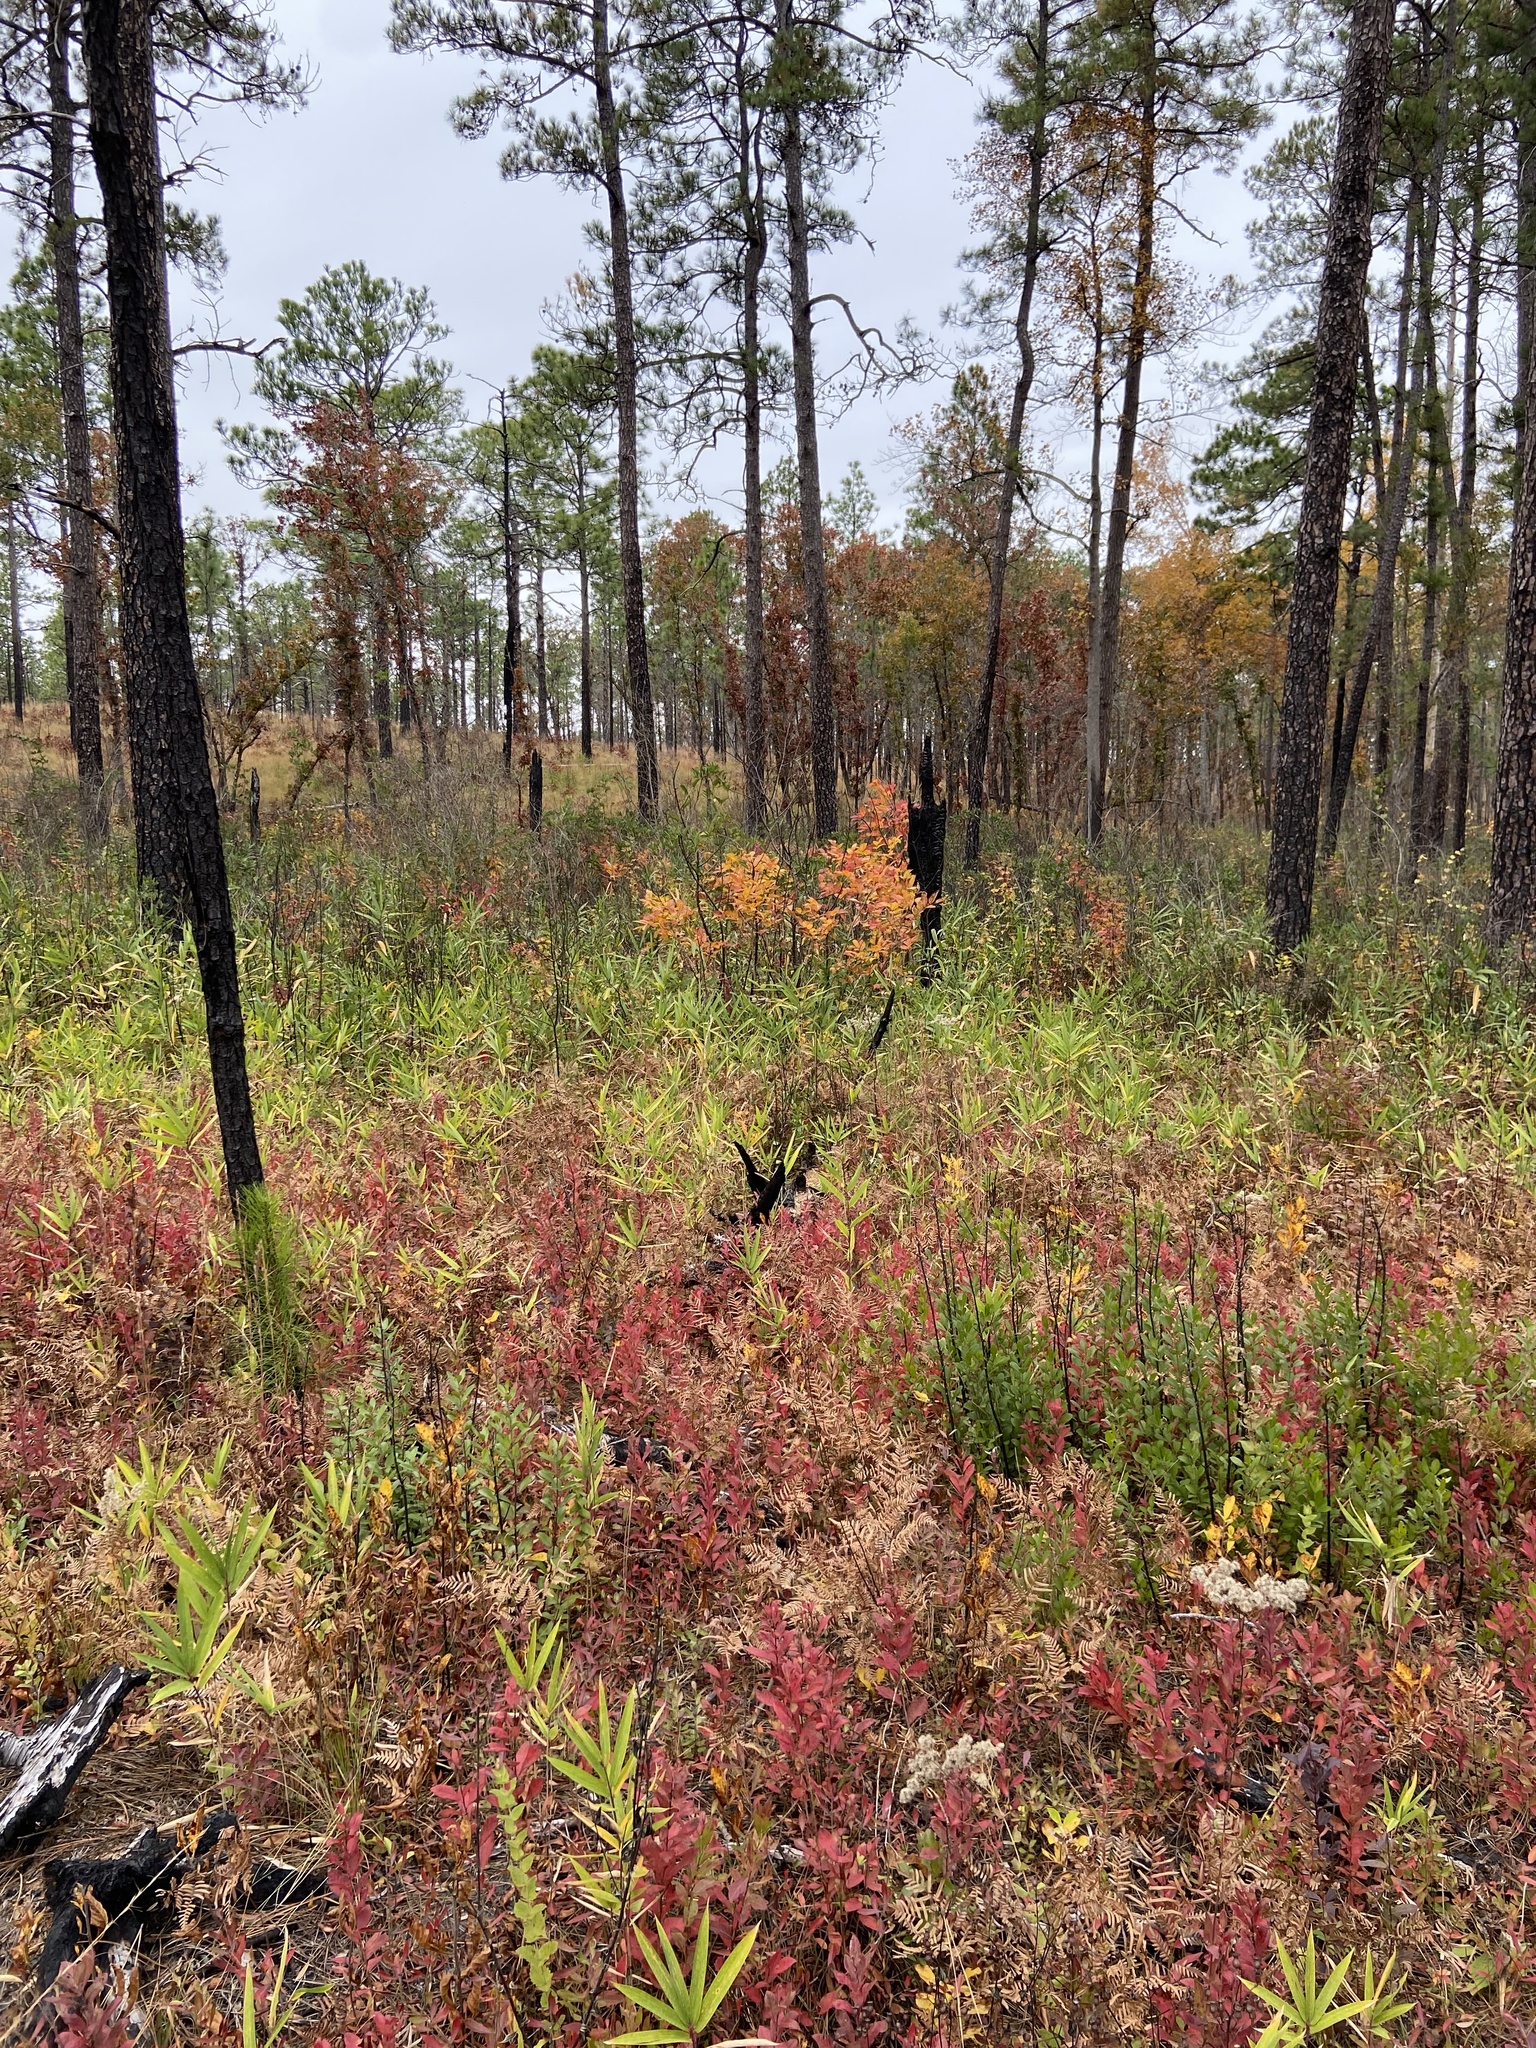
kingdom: Plantae
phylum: Tracheophyta
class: Magnoliopsida
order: Sapindales
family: Anacardiaceae
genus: Toxicodendron
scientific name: Toxicodendron vernix
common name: Poison sumac
